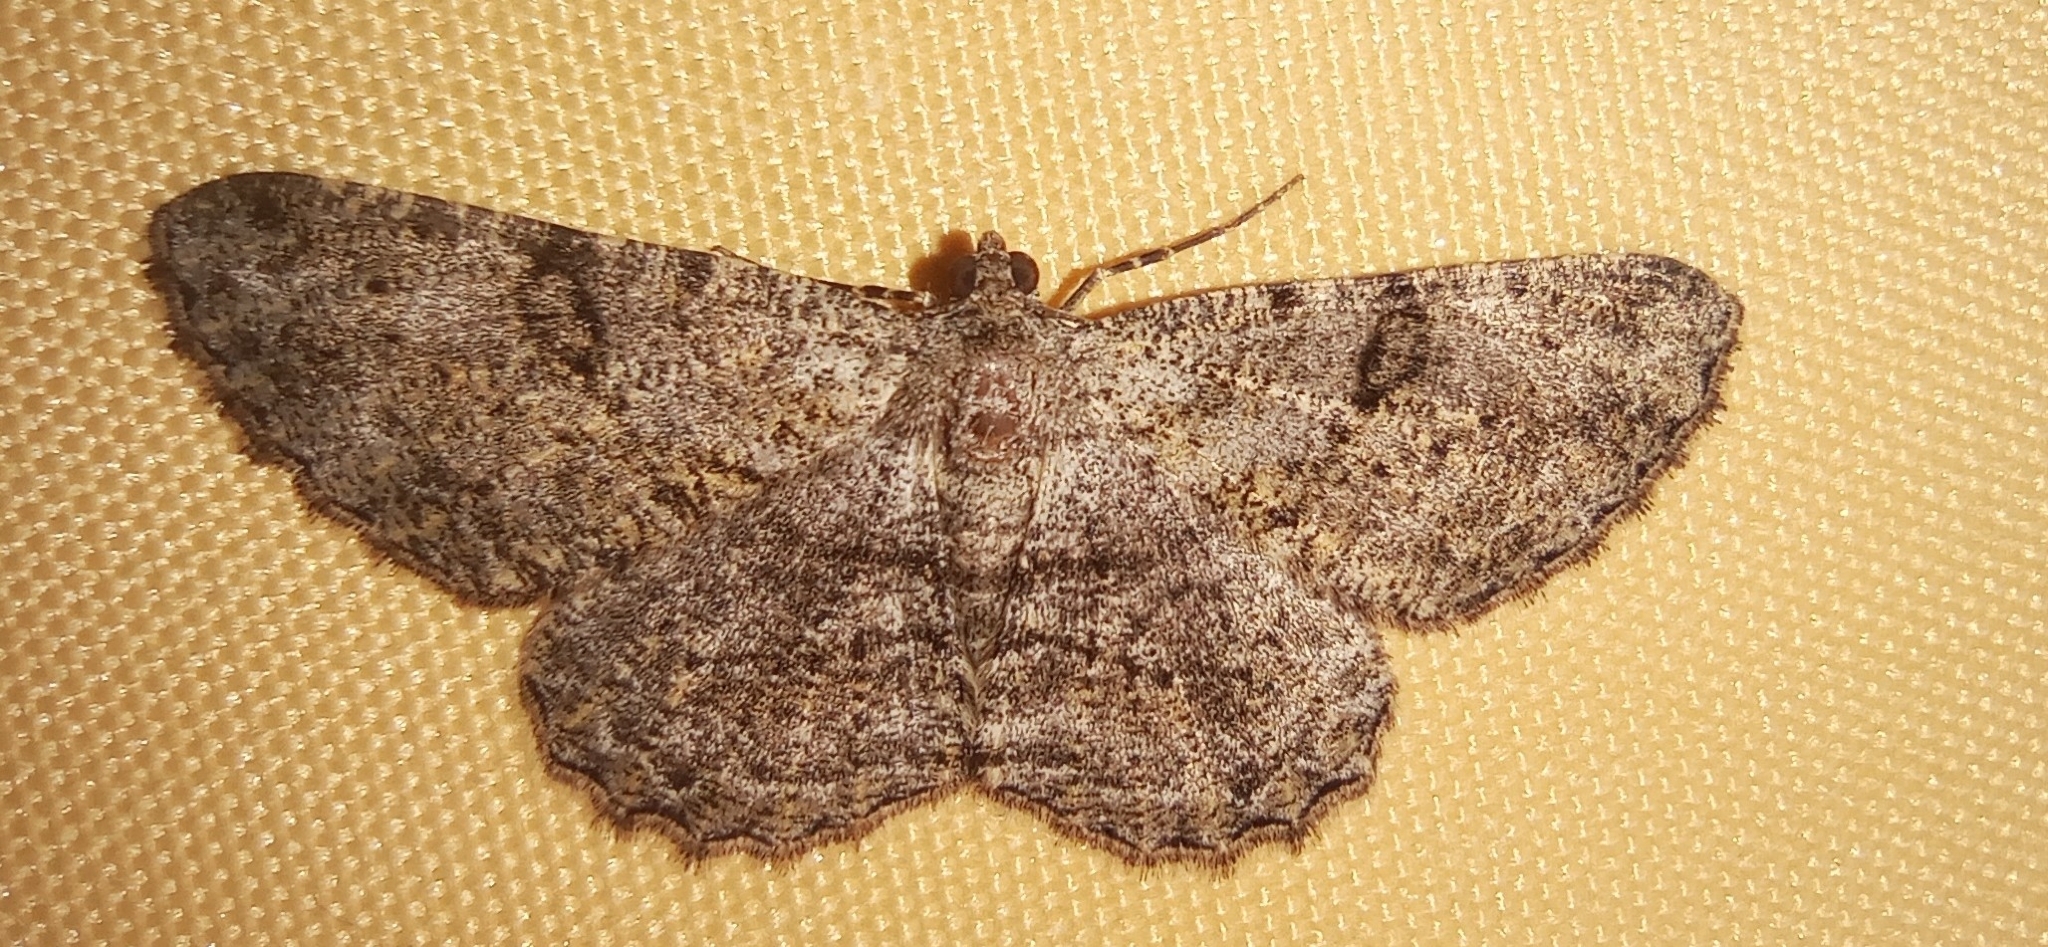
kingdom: Animalia
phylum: Arthropoda
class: Insecta
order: Lepidoptera
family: Geometridae
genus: Peribatodes
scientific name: Peribatodes rhomboidaria
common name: Willow beauty
